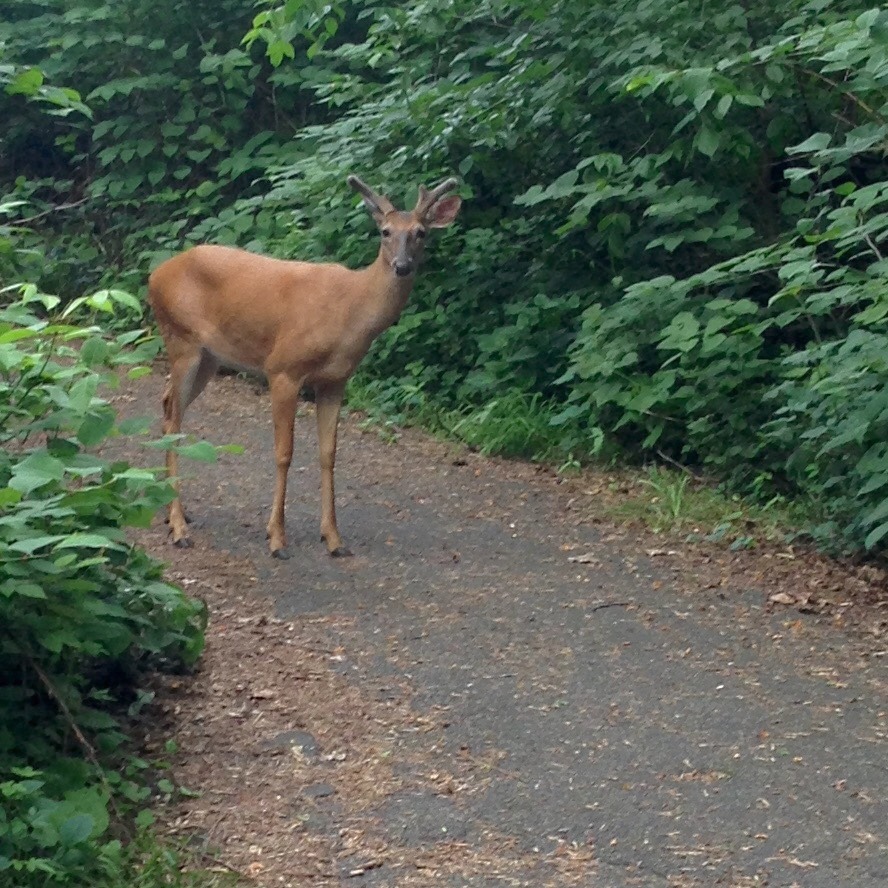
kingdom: Animalia
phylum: Chordata
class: Mammalia
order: Artiodactyla
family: Cervidae
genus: Odocoileus
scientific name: Odocoileus virginianus
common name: White-tailed deer
